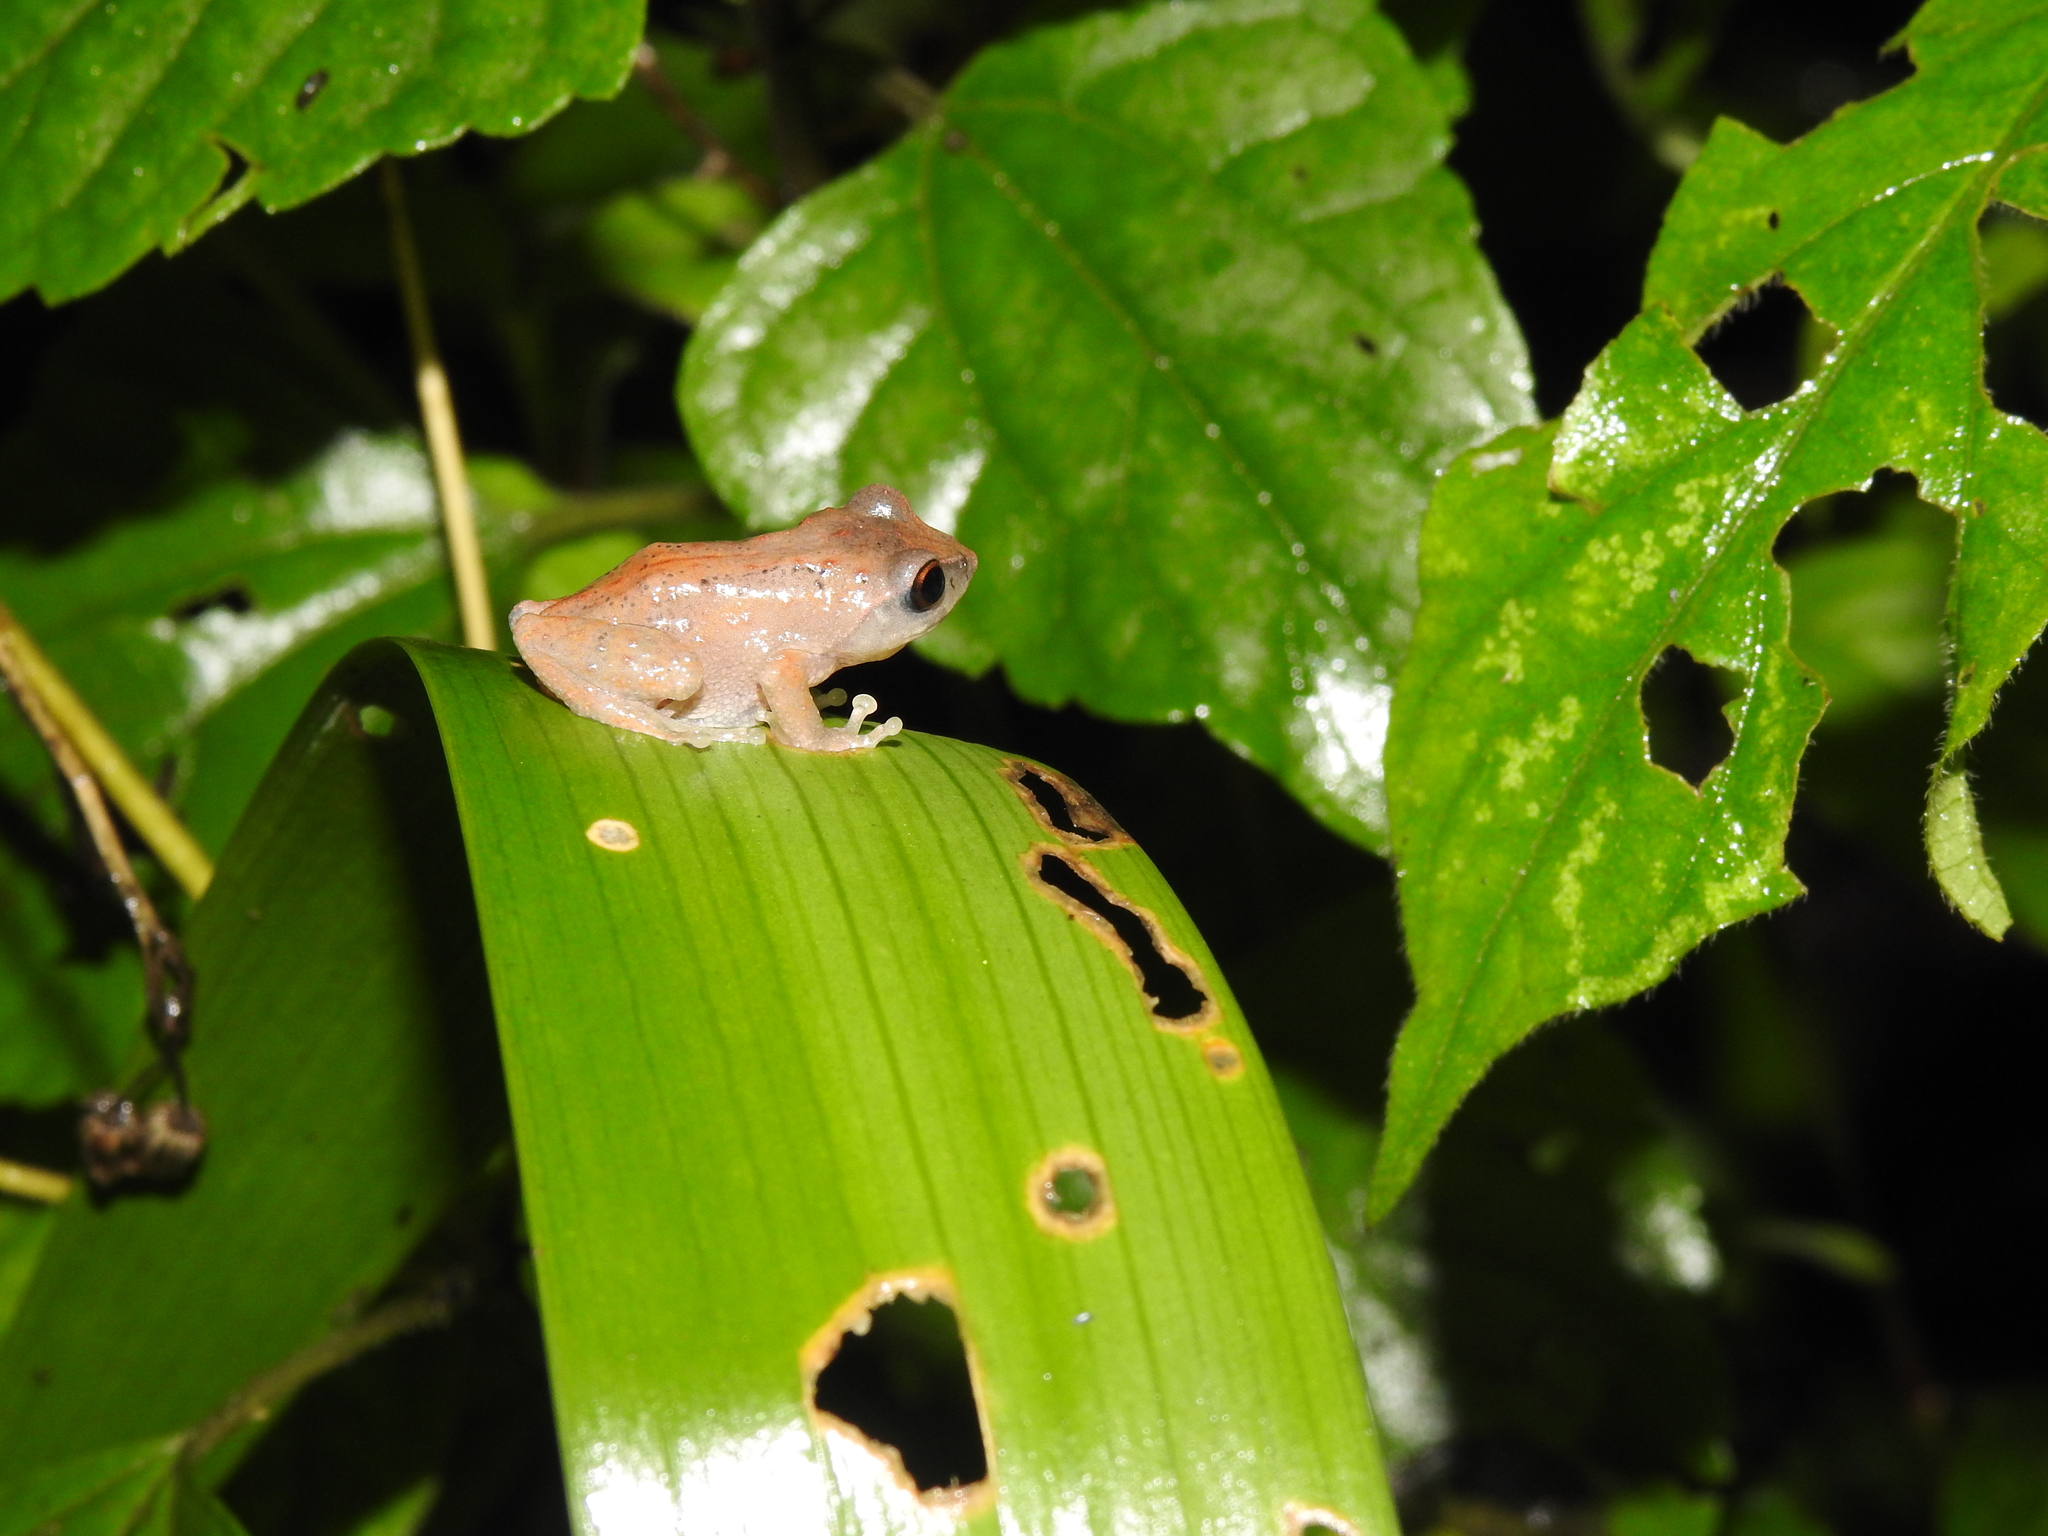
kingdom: Animalia
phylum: Chordata
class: Amphibia
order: Anura
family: Rhacophoridae
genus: Raorchestes
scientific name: Raorchestes dubois
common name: Koadaikanal bush frog
